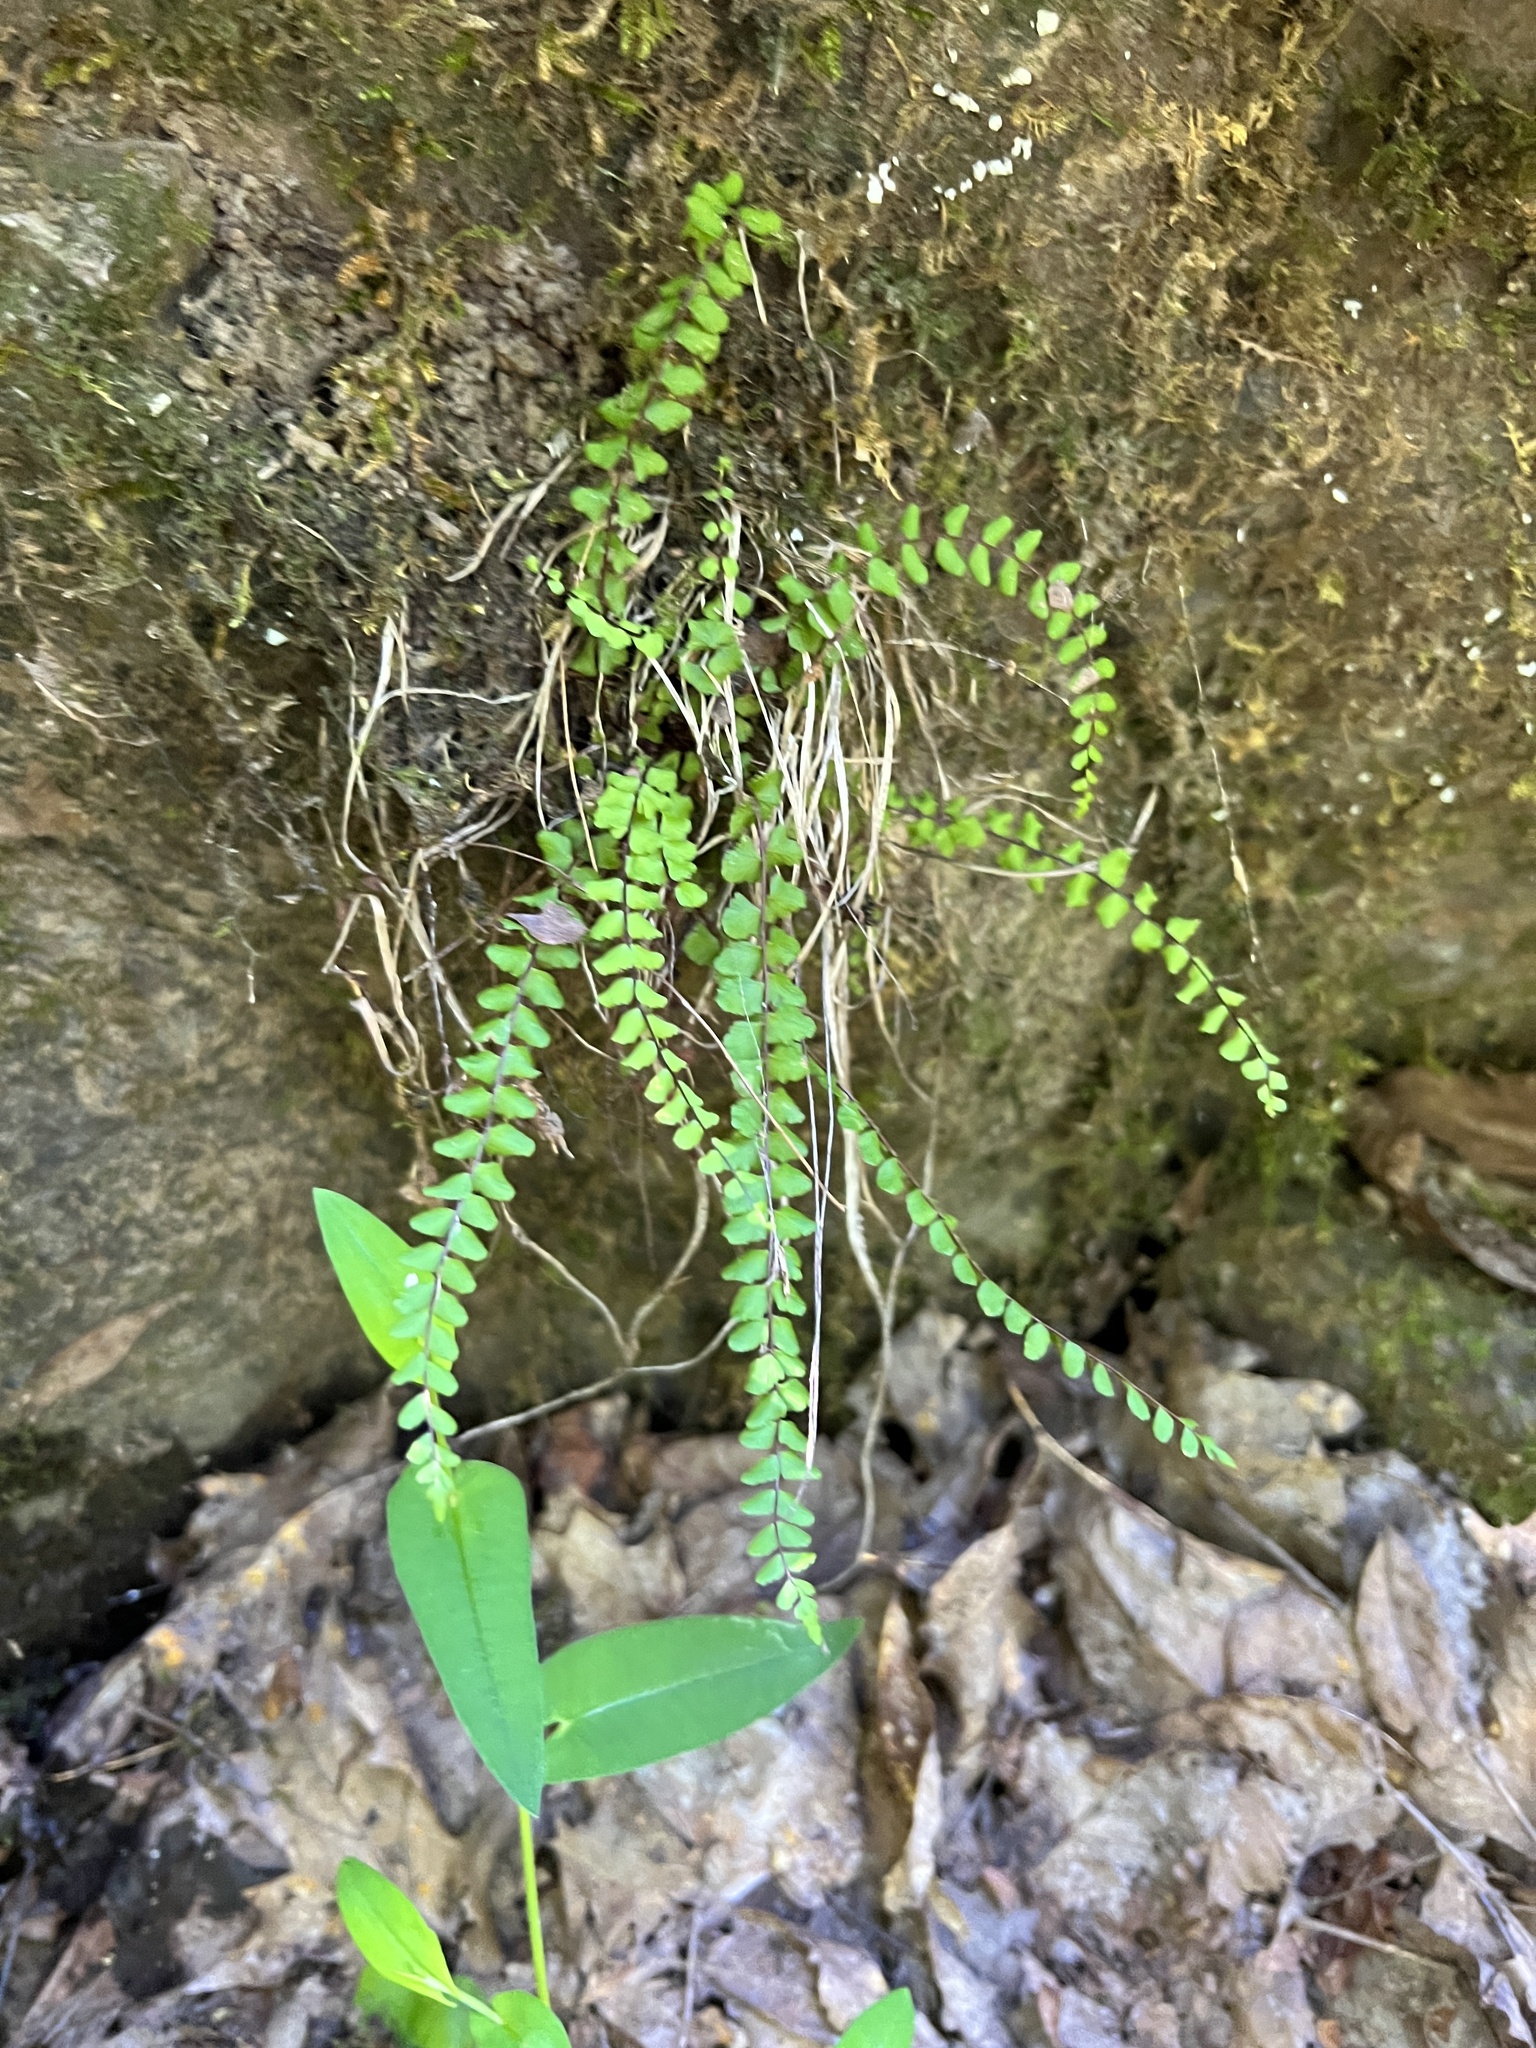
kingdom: Plantae
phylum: Tracheophyta
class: Polypodiopsida
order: Polypodiales
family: Aspleniaceae
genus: Asplenium
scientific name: Asplenium trichomanes
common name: Maidenhair spleenwort
